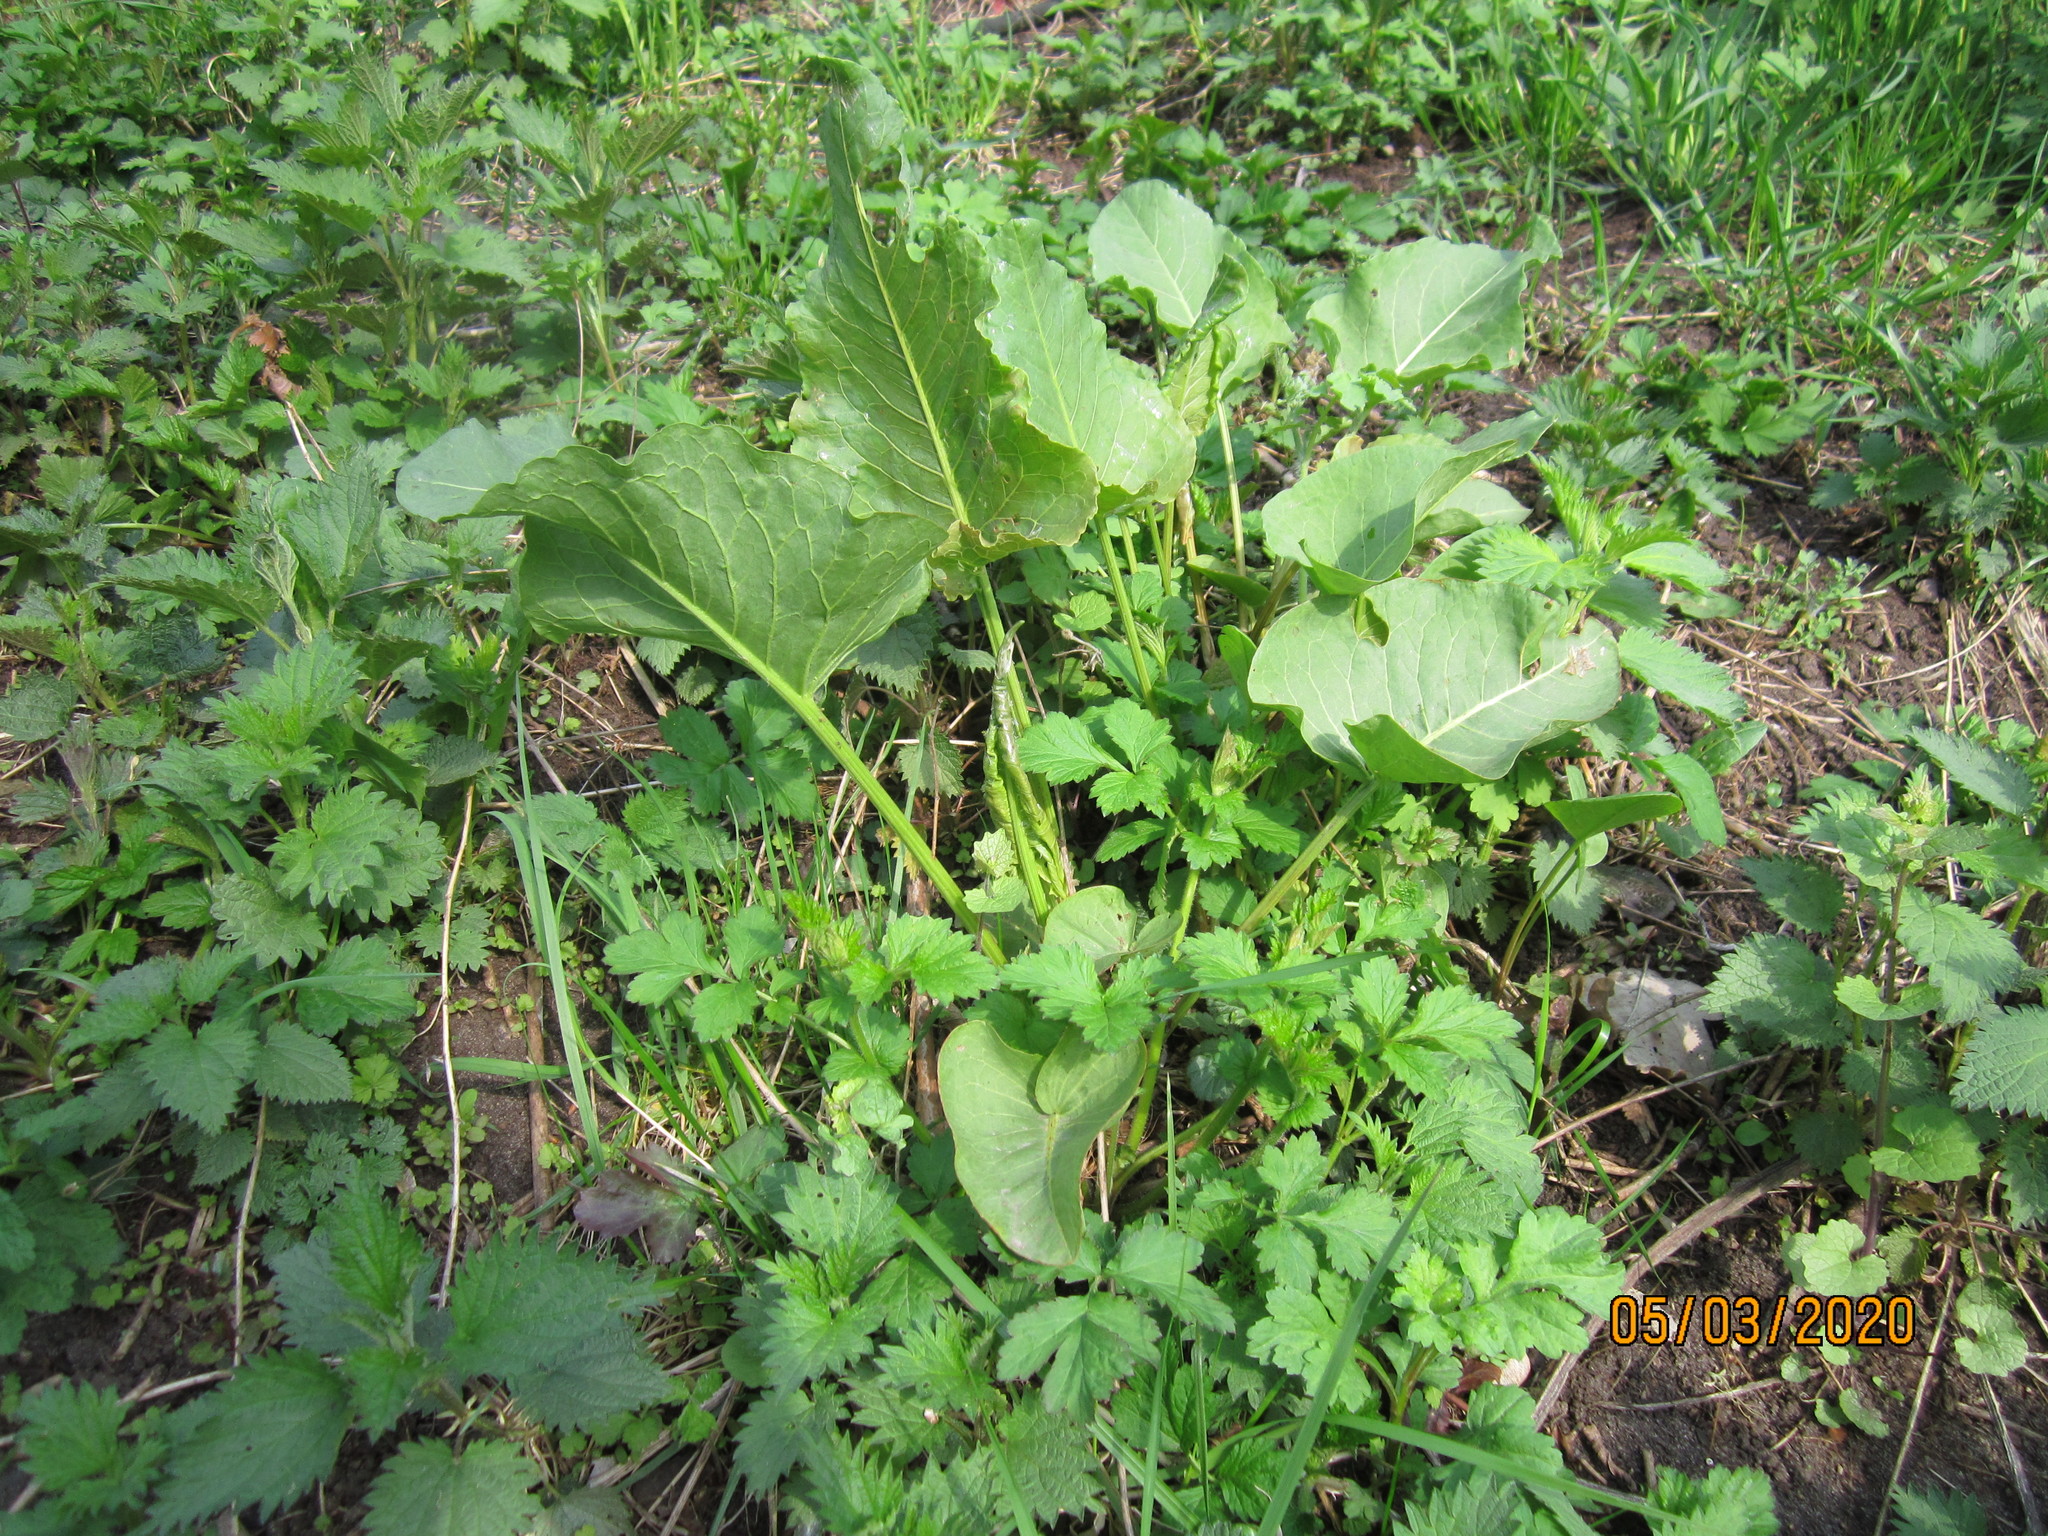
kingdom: Plantae
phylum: Tracheophyta
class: Magnoliopsida
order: Caryophyllales
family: Polygonaceae
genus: Rumex
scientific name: Rumex confertus
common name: Russian dock
